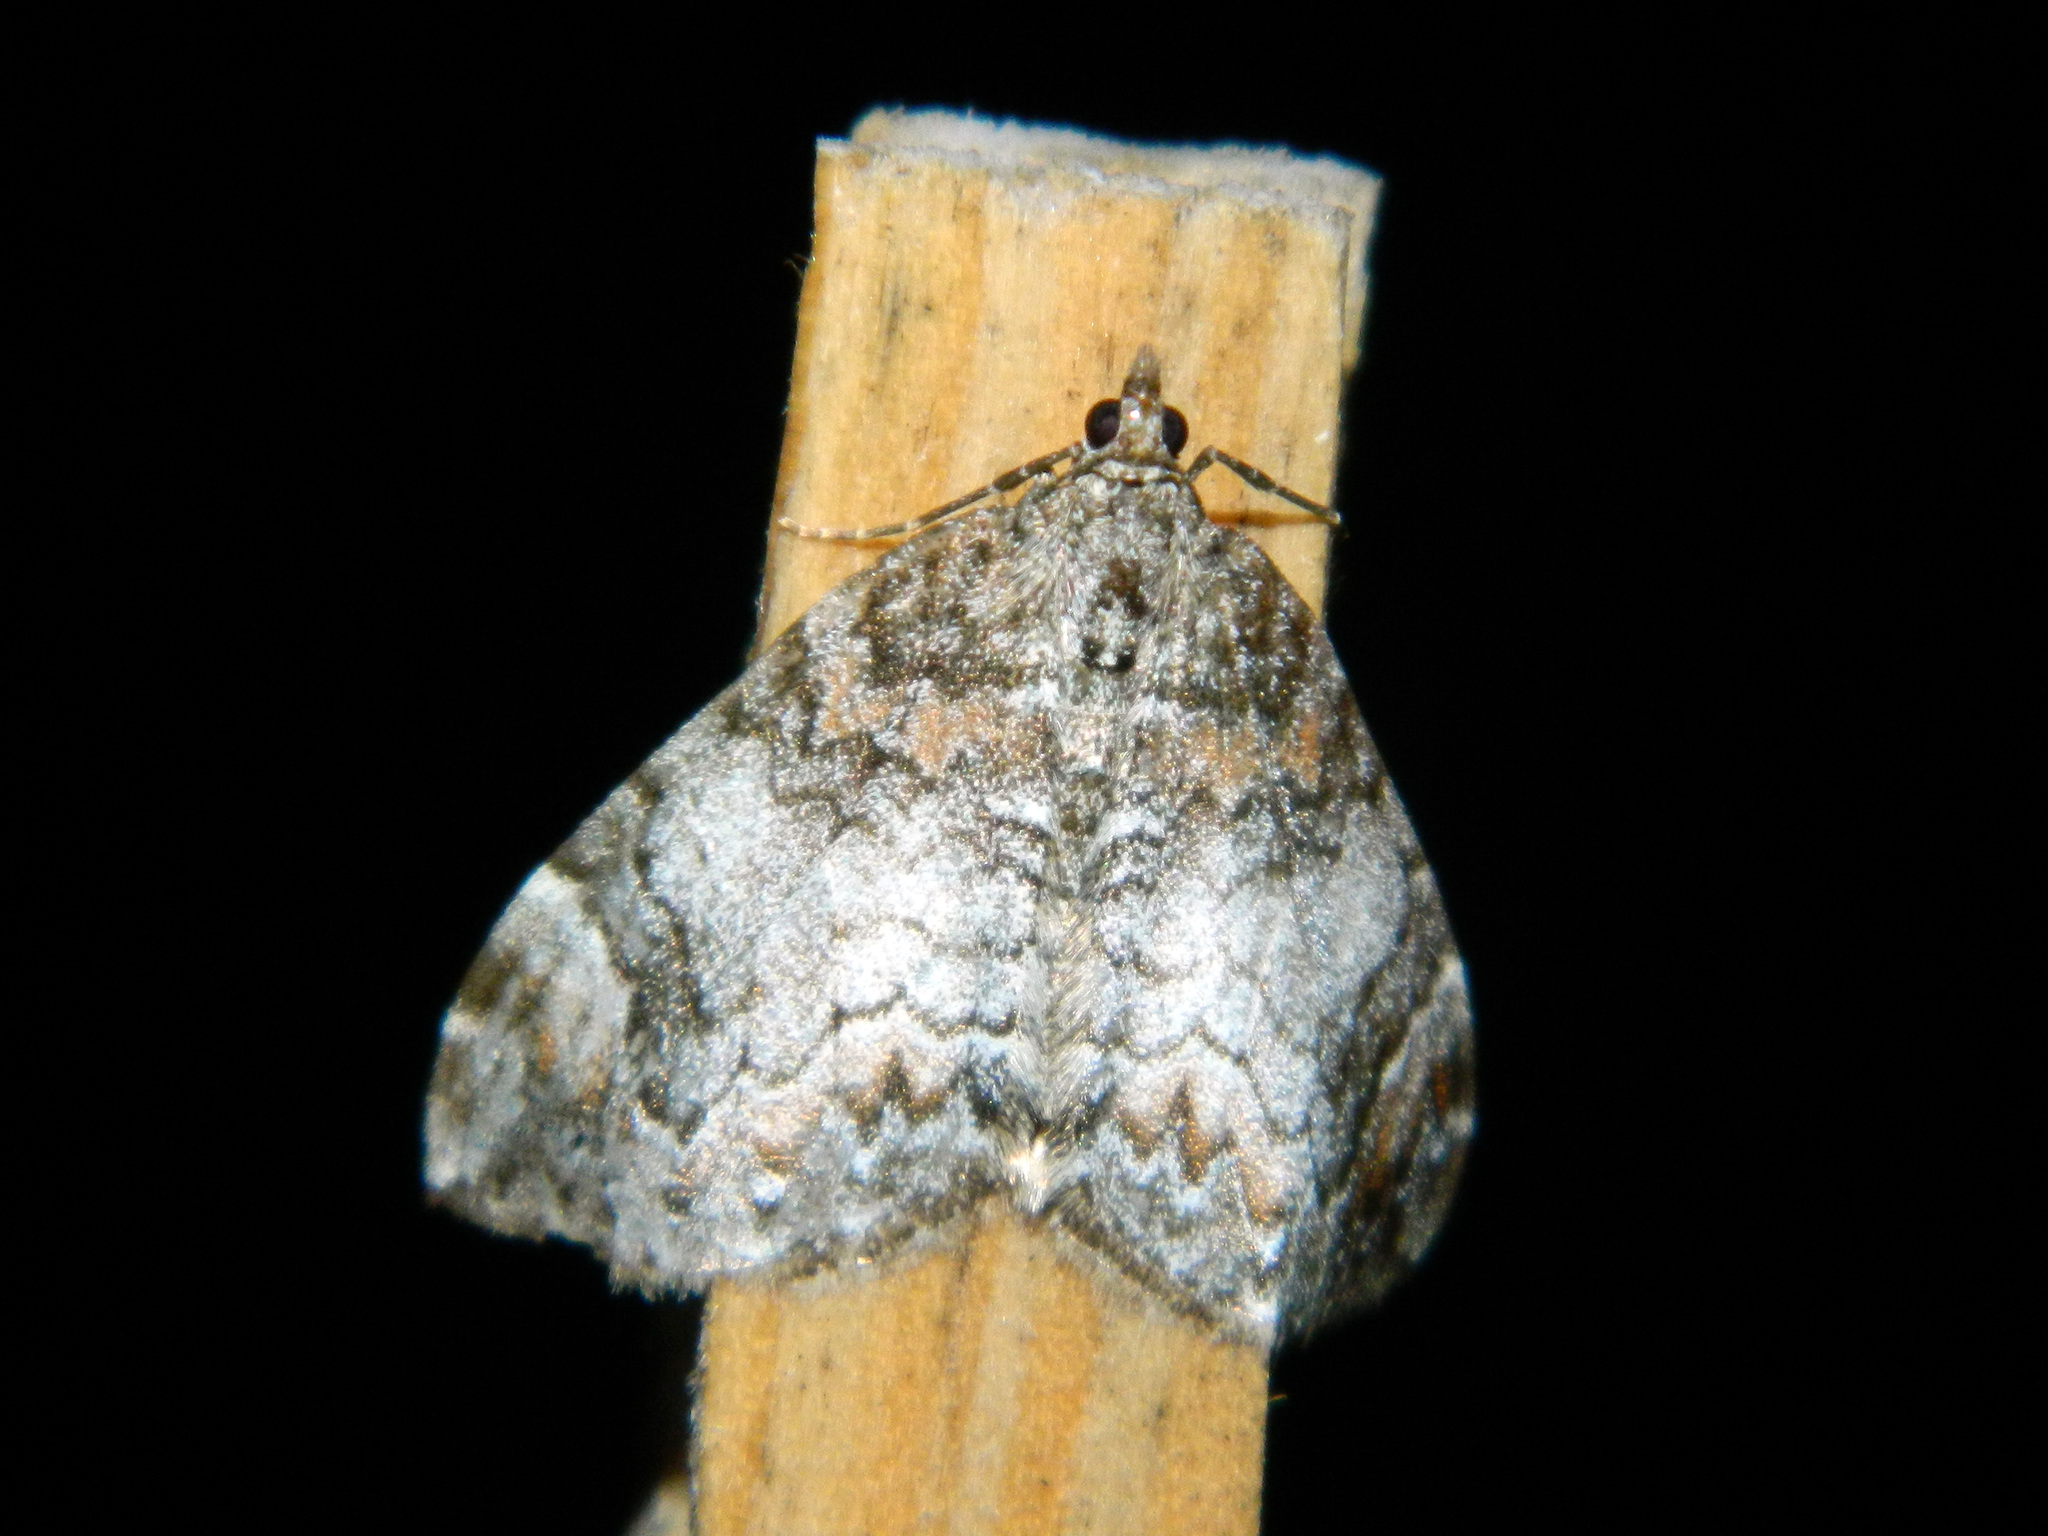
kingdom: Animalia
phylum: Arthropoda
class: Insecta
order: Lepidoptera
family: Geometridae
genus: Dysstroma
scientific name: Dysstroma citrata
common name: Dark marbled carpet
